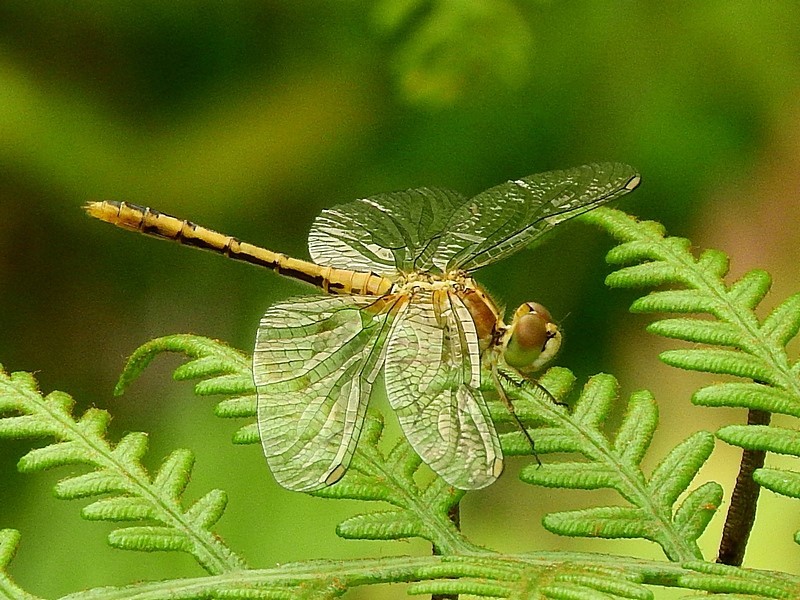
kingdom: Animalia
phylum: Arthropoda
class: Insecta
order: Odonata
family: Libellulidae
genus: Diplacodes
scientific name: Diplacodes bipunctata
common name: Red percher dragonfly
